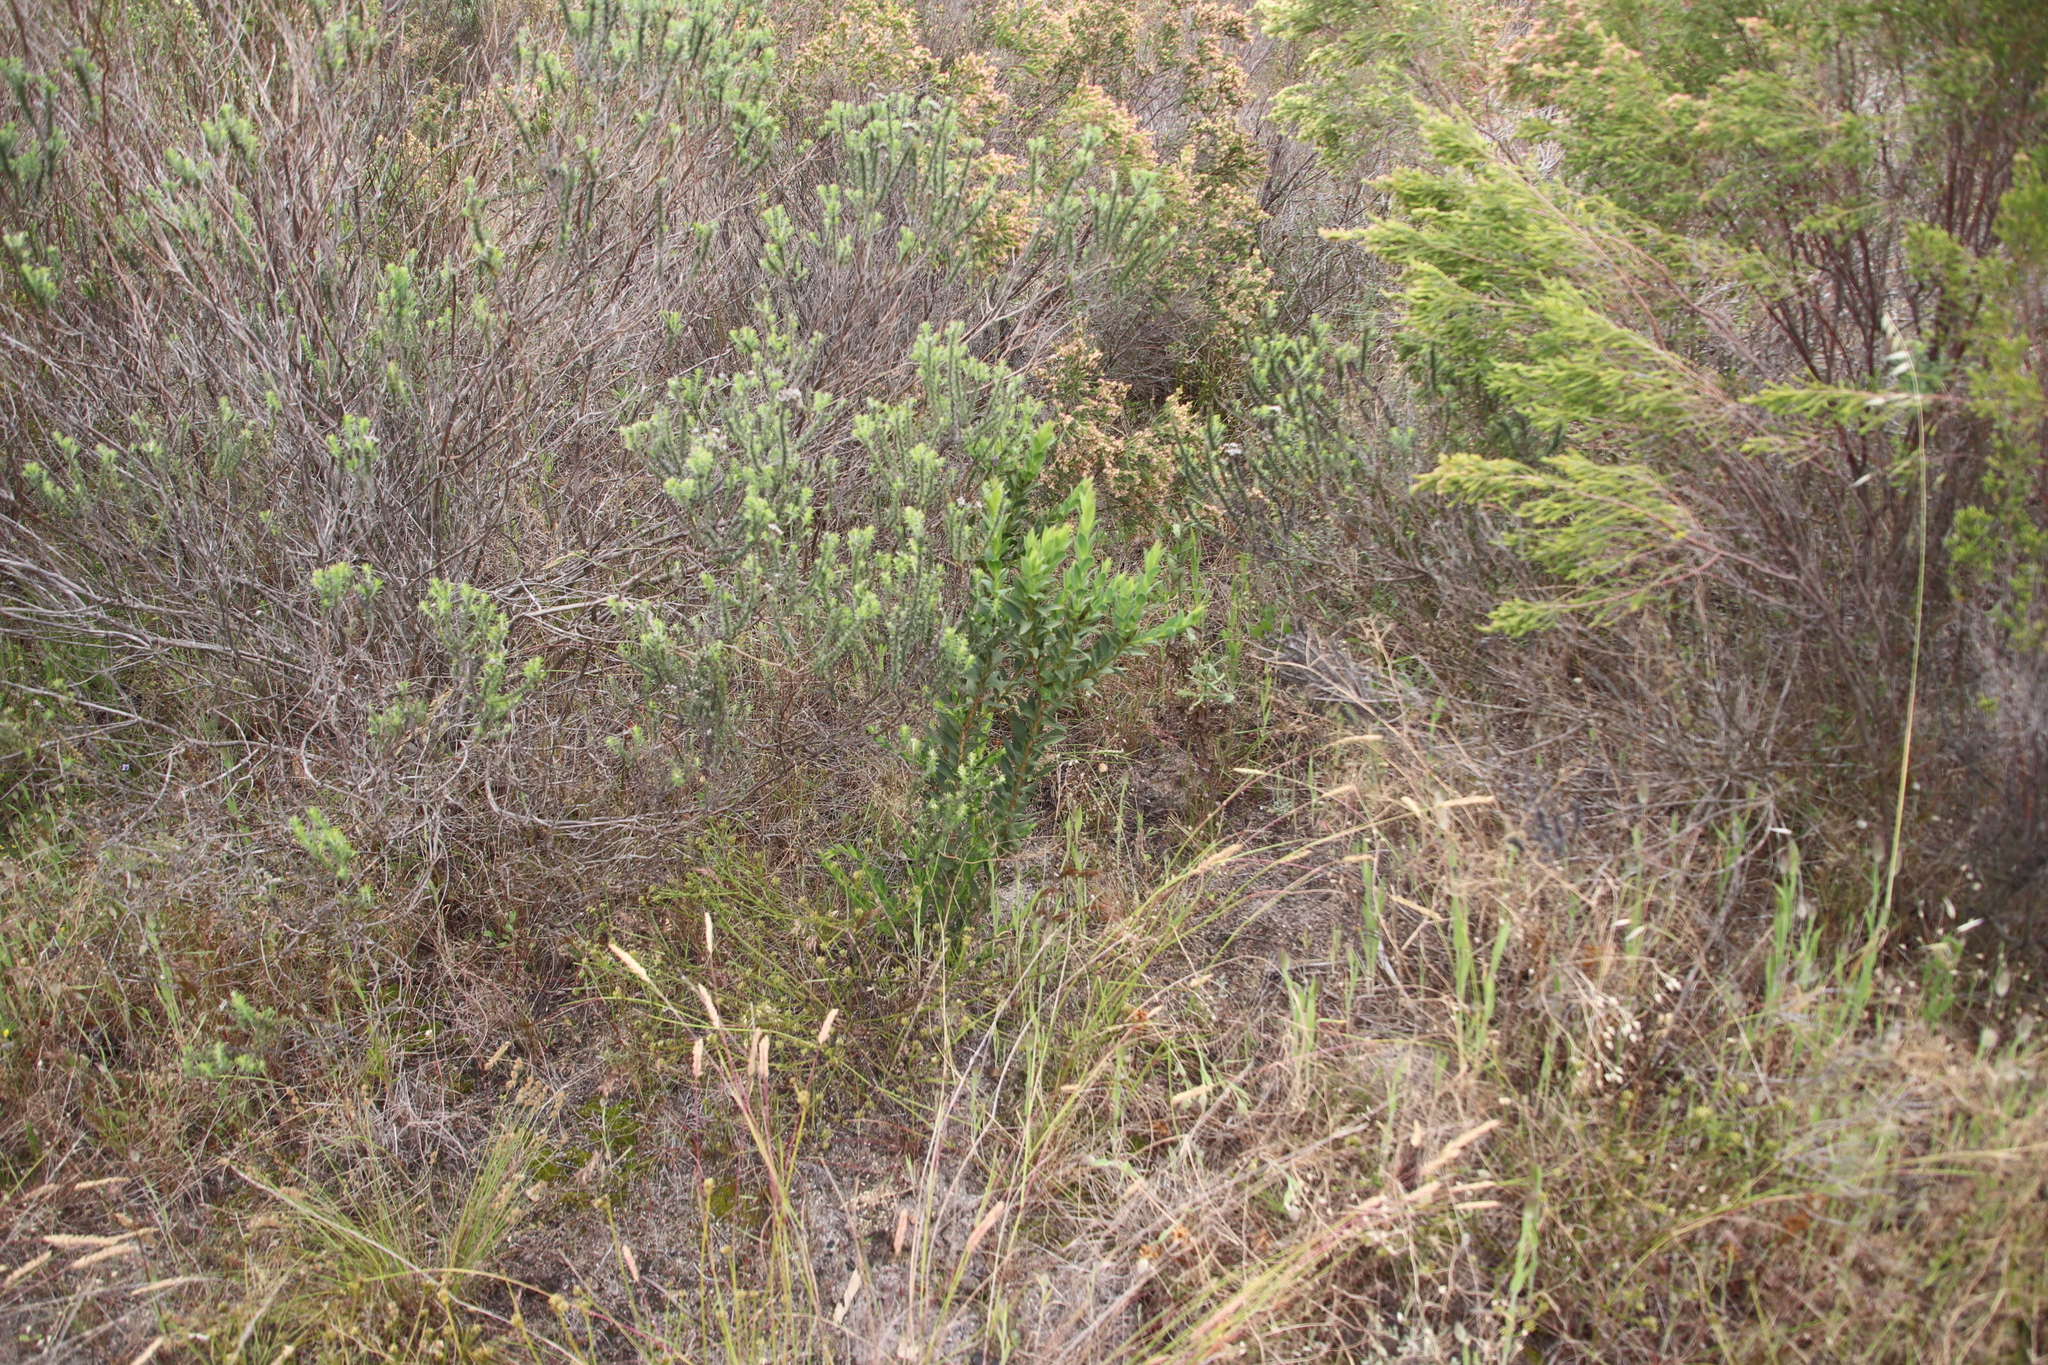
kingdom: Plantae
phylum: Tracheophyta
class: Magnoliopsida
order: Fabales
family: Fabaceae
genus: Liparia
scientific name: Liparia splendens
